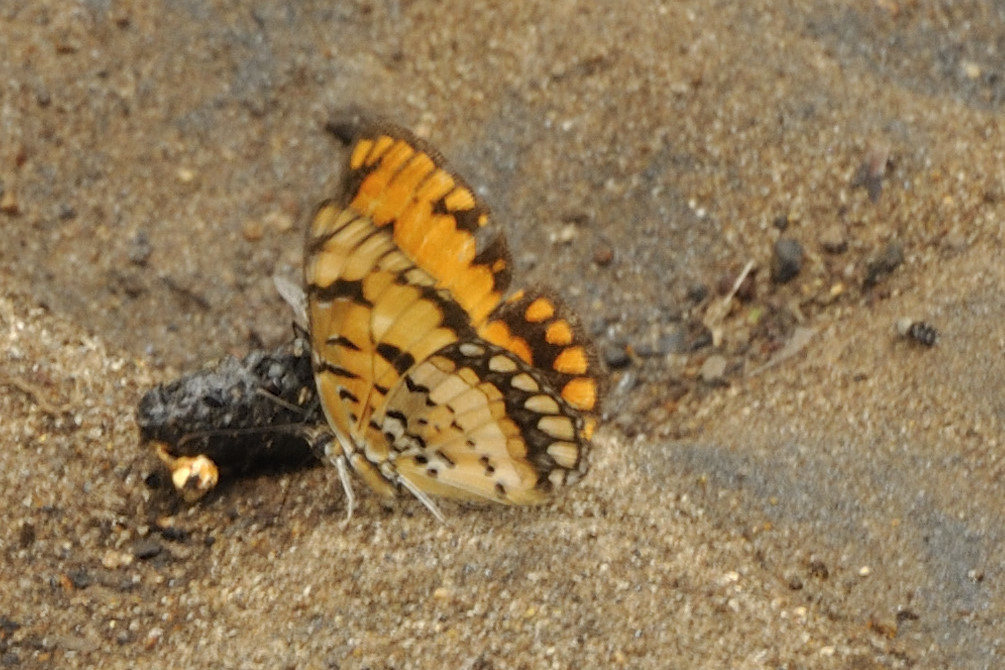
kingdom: Animalia
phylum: Arthropoda
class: Insecta
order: Lepidoptera
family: Nymphalidae
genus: Byblia
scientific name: Byblia acheloia
